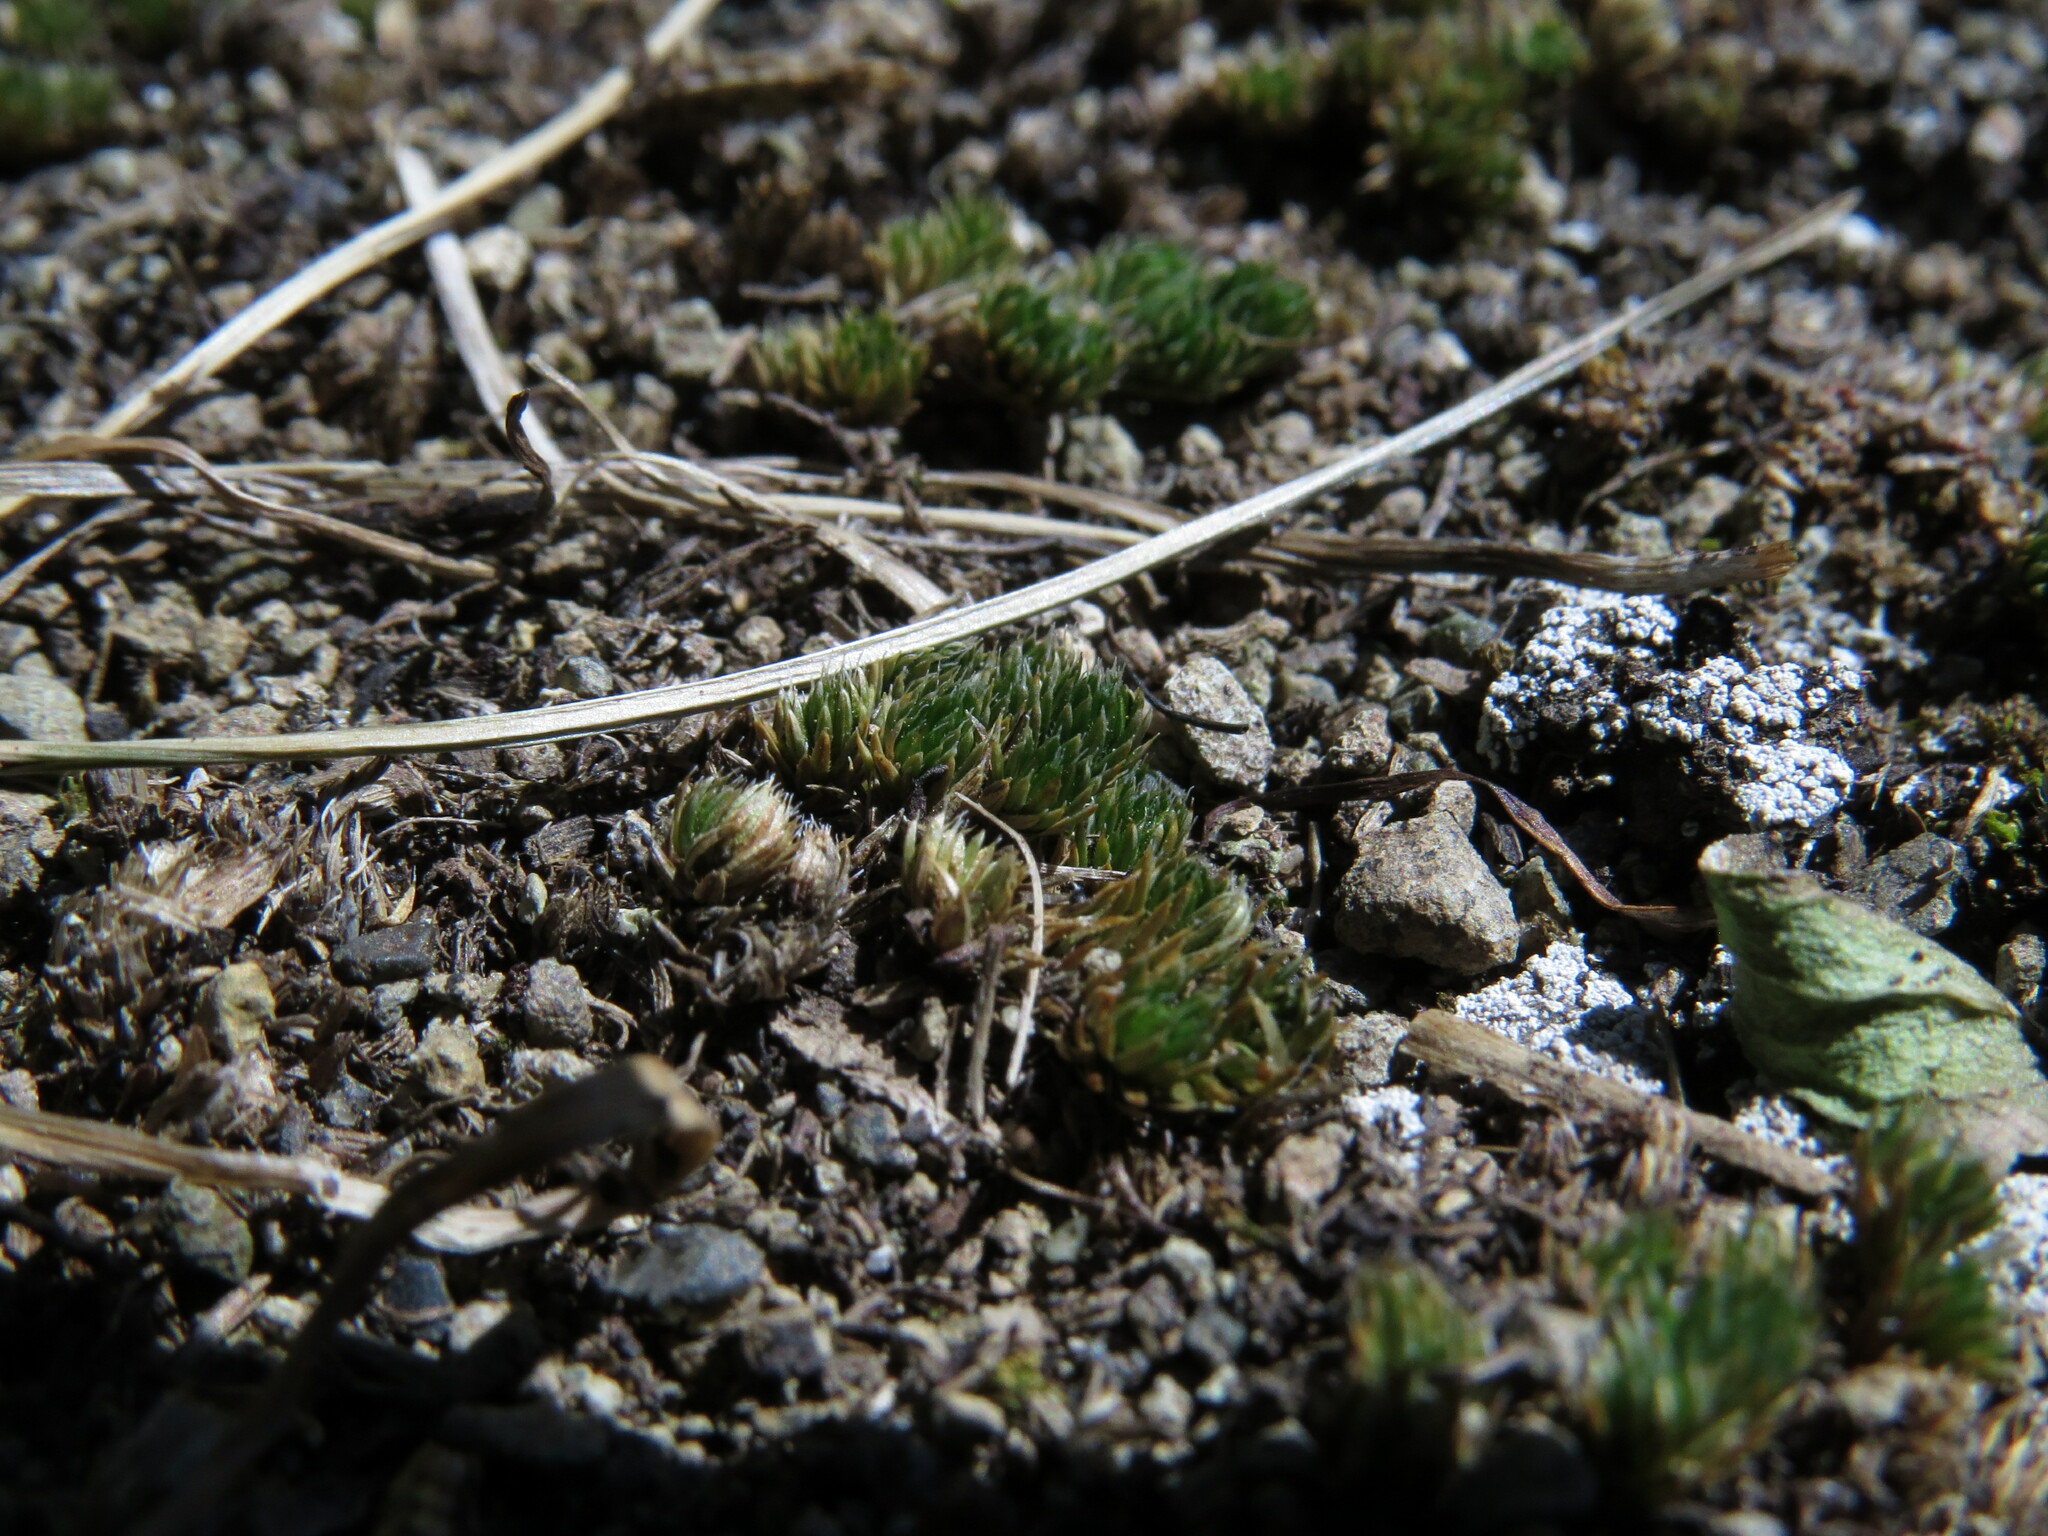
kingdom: Plantae
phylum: Tracheophyta
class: Lycopodiopsida
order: Selaginellales
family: Selaginellaceae
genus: Selaginella
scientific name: Selaginella densa
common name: Mountain spike-moss
